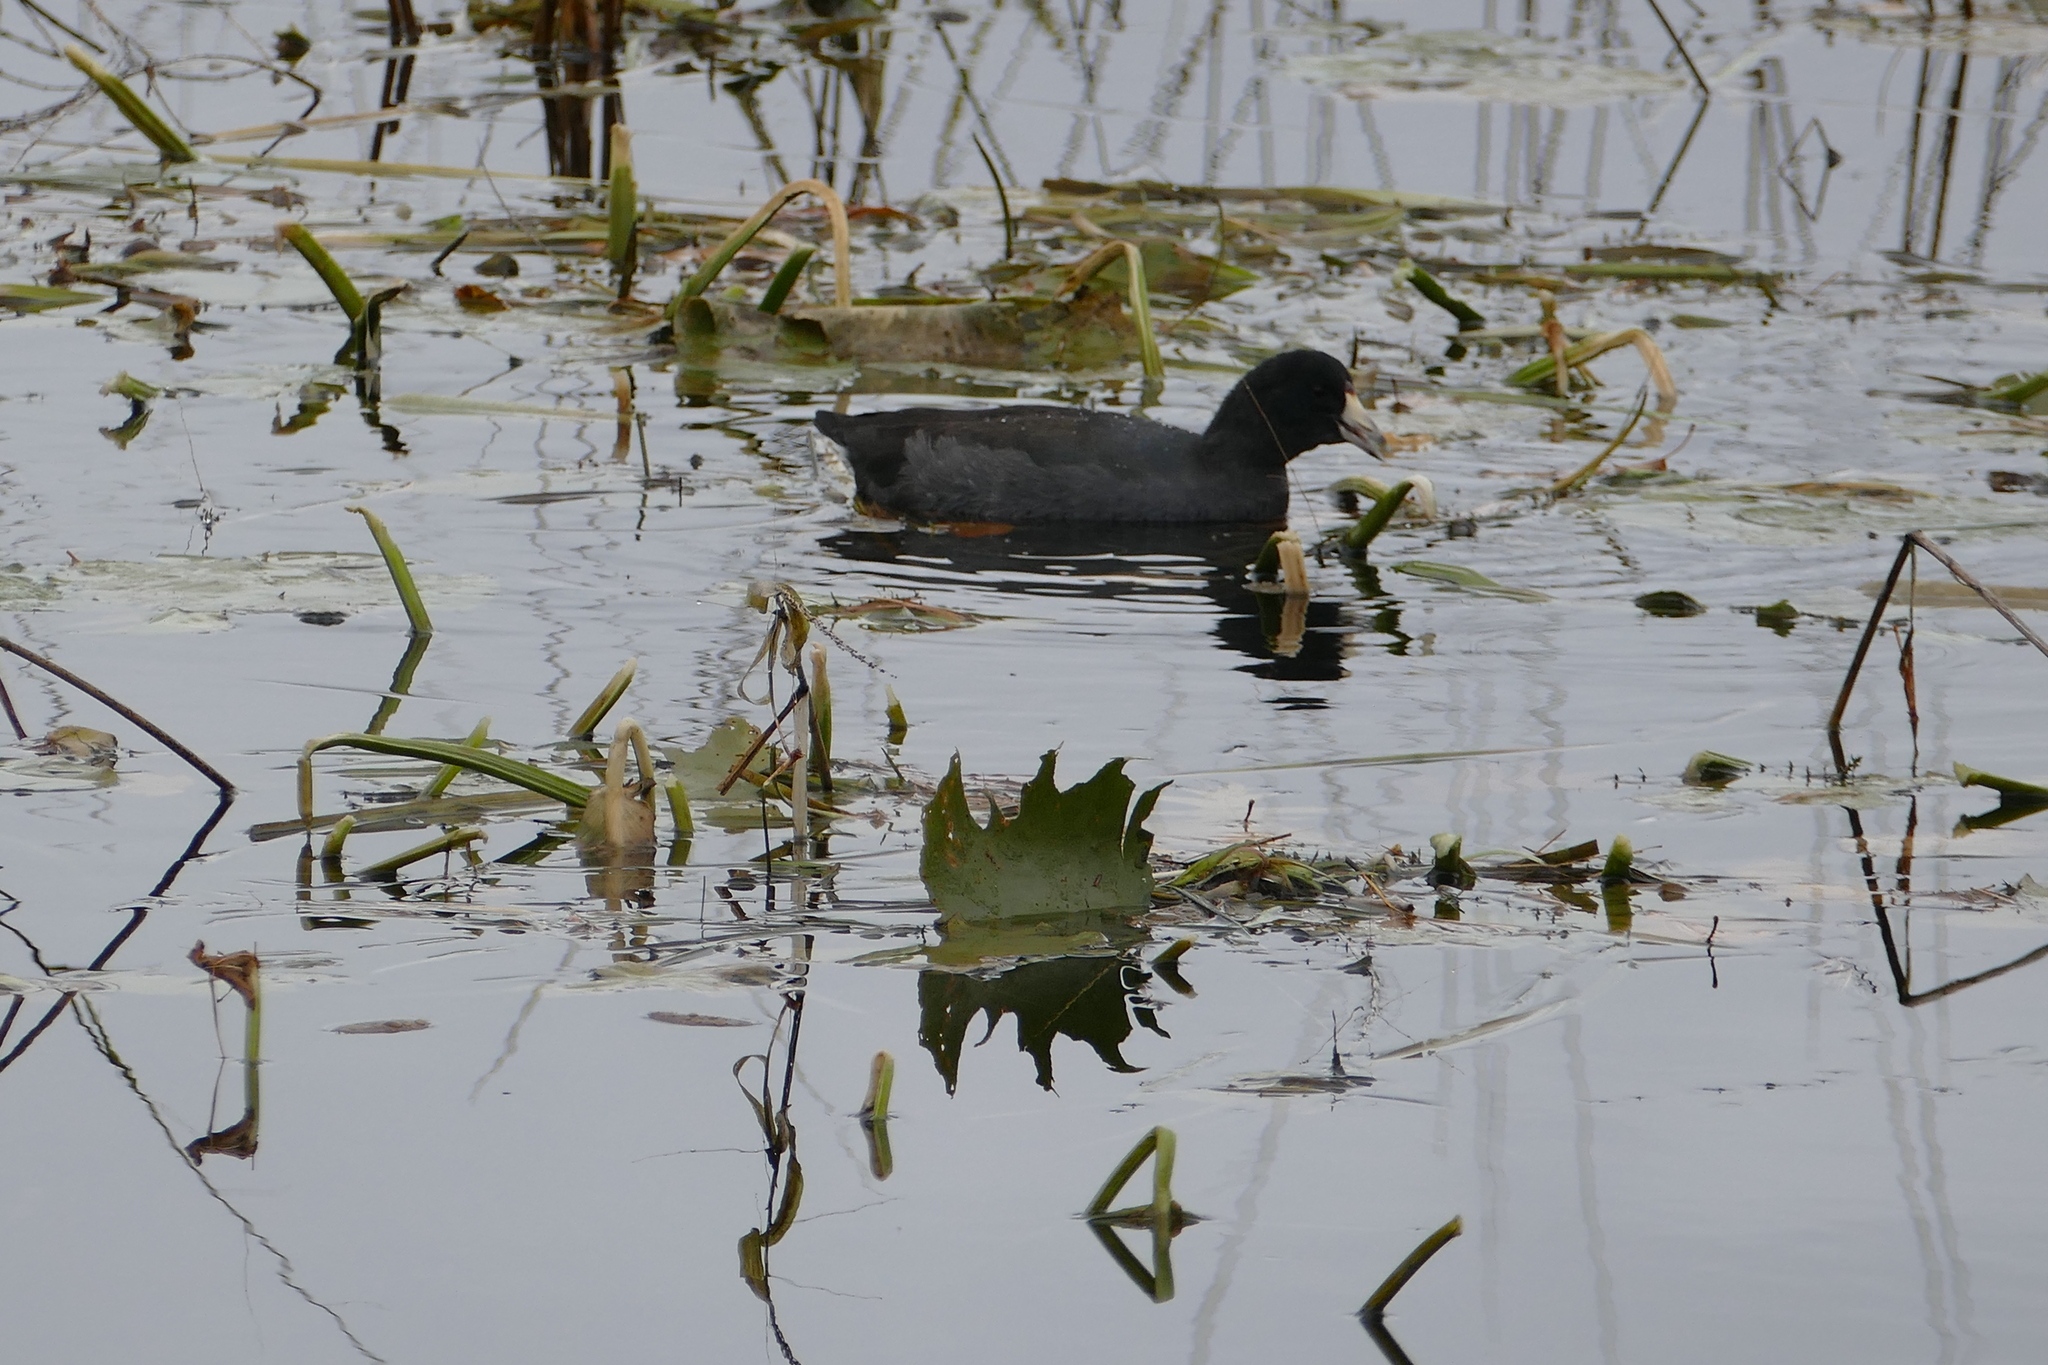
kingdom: Animalia
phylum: Chordata
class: Aves
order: Gruiformes
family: Rallidae
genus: Fulica
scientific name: Fulica americana
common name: American coot
